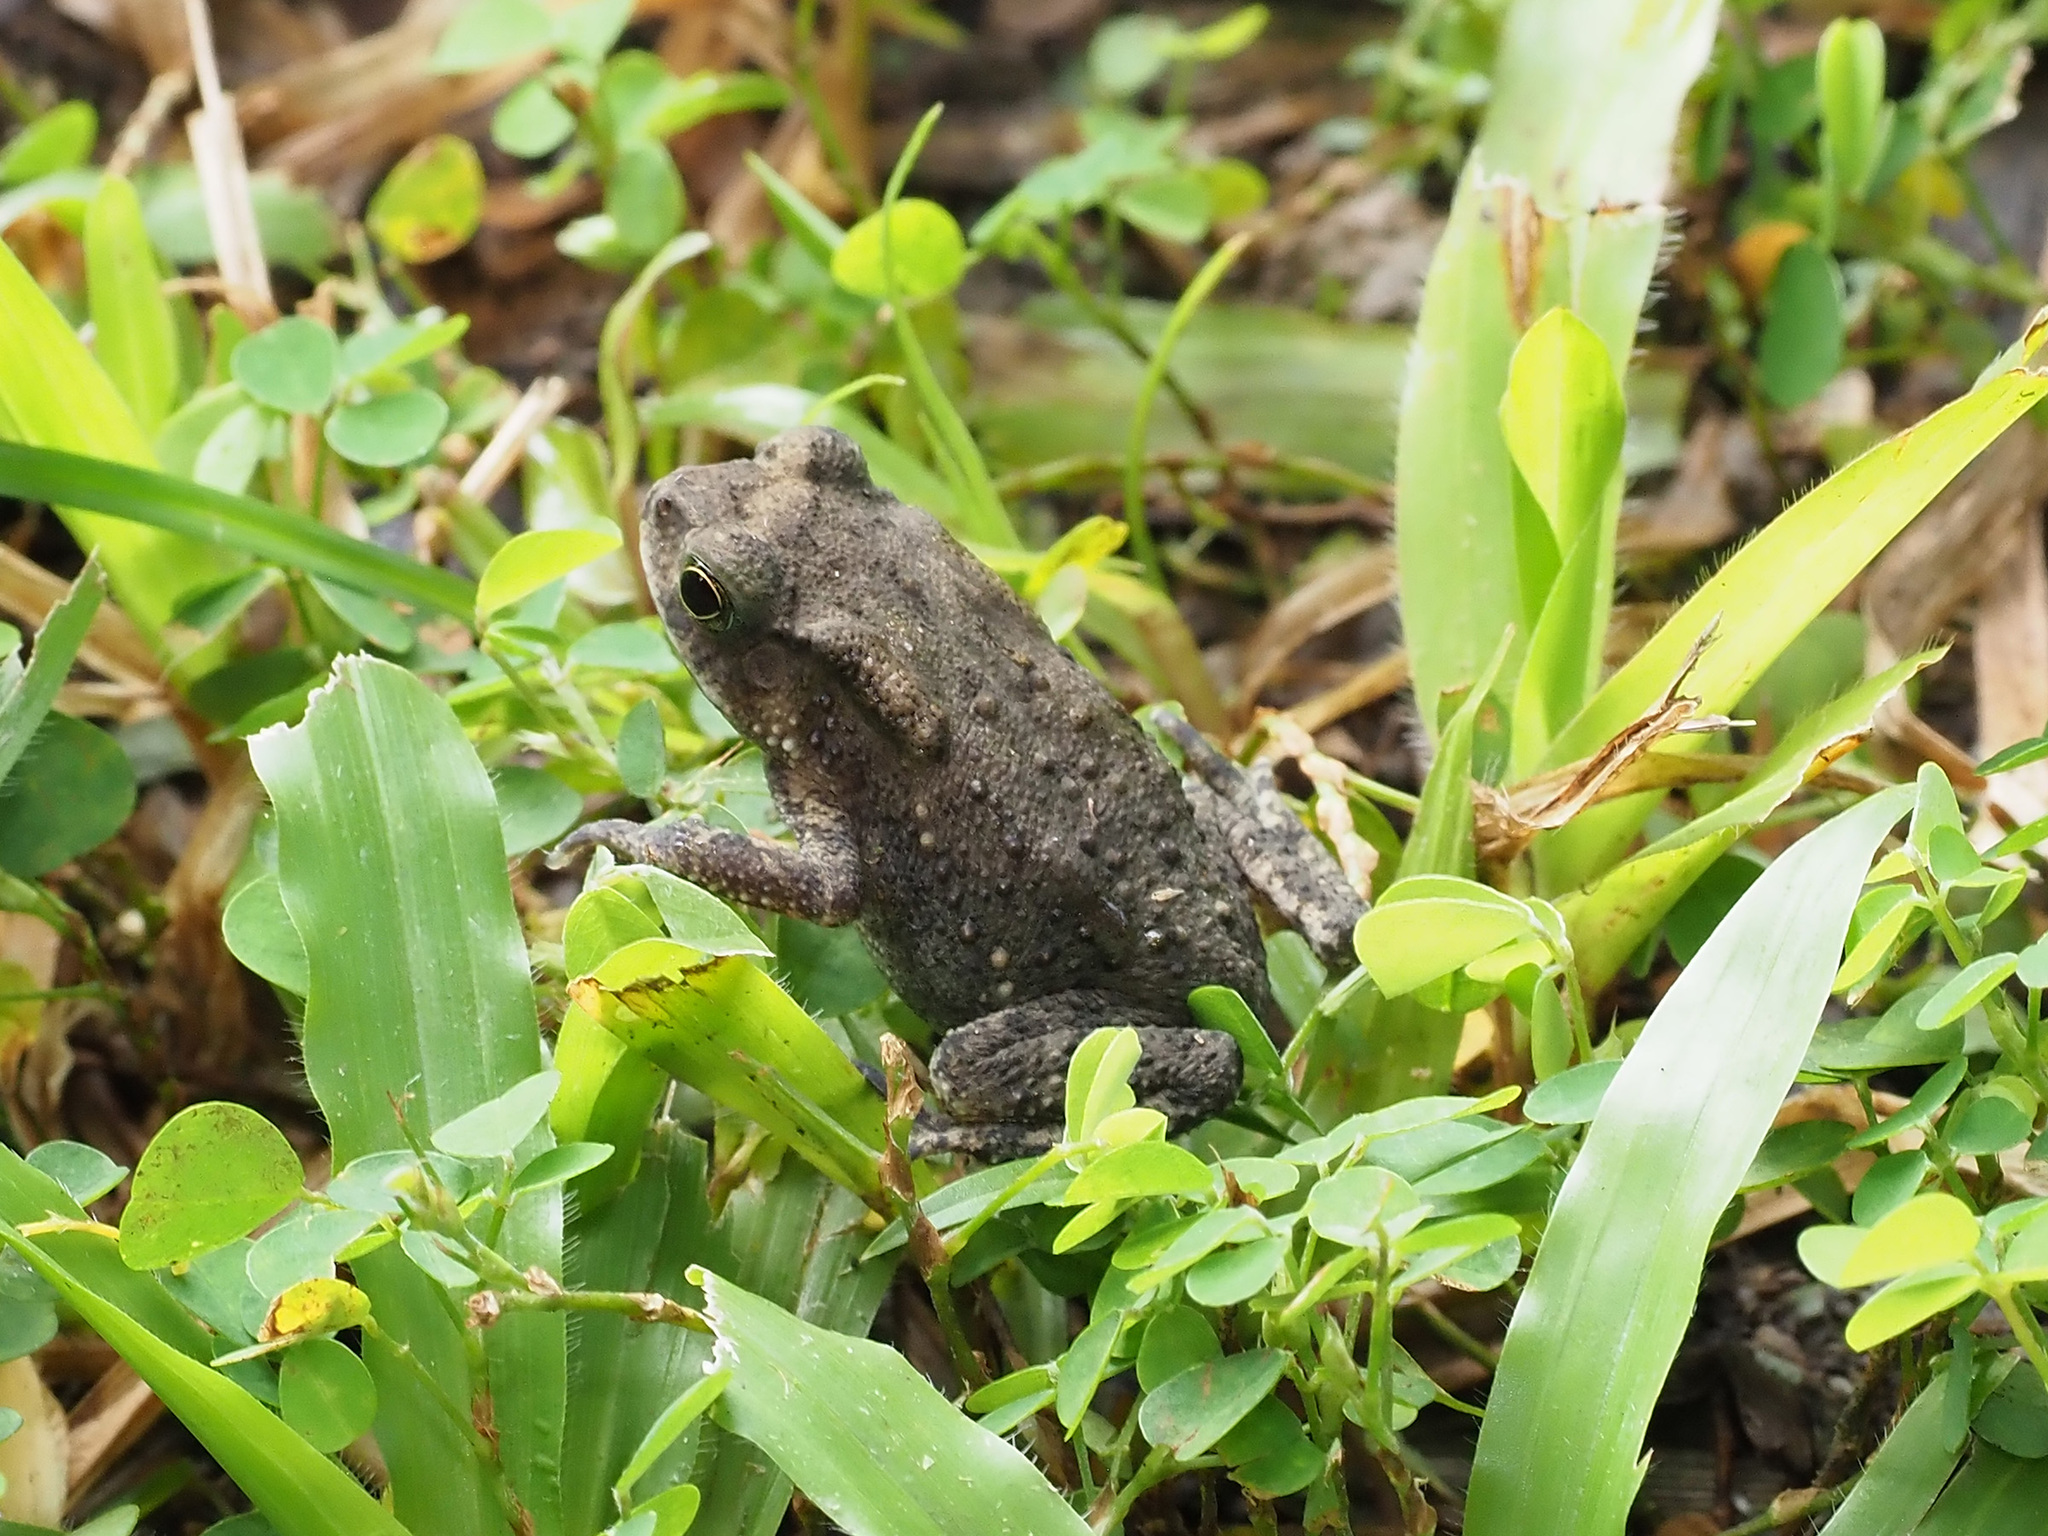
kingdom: Animalia
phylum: Chordata
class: Amphibia
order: Anura
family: Bufonidae
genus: Duttaphrynus
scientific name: Duttaphrynus melanostictus
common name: Common sunda toad
